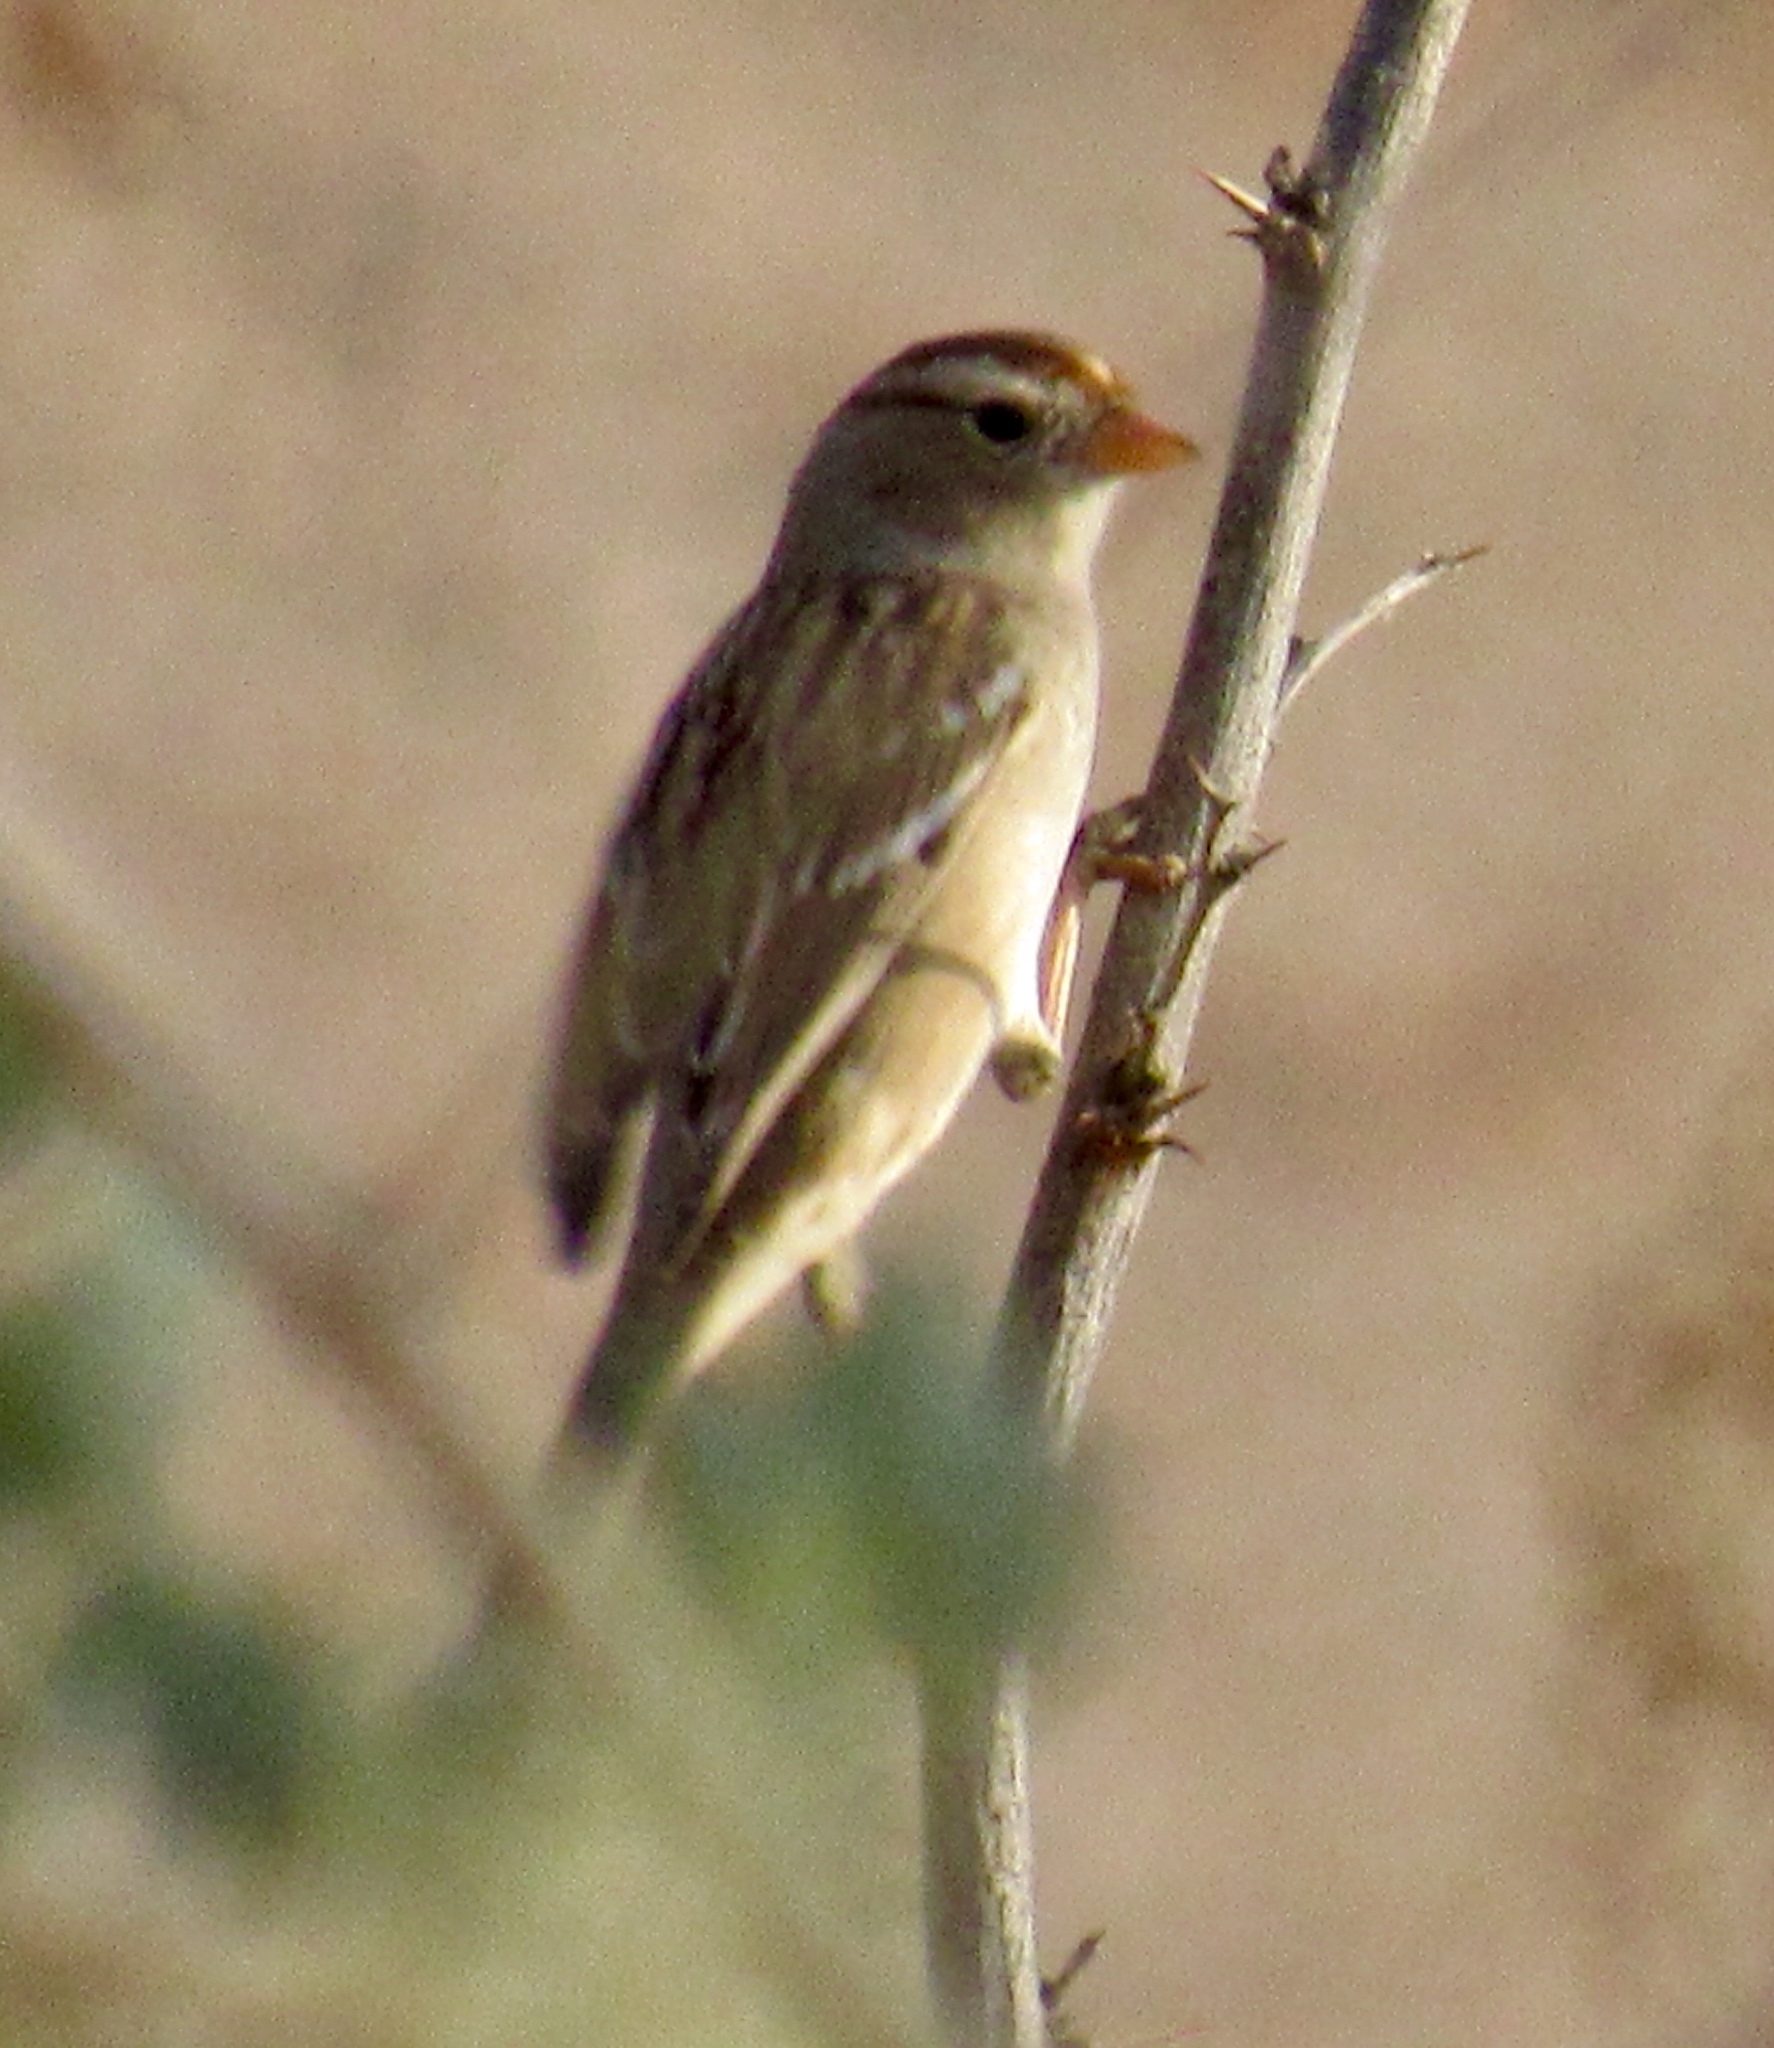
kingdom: Animalia
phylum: Chordata
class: Aves
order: Passeriformes
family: Passerellidae
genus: Zonotrichia
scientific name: Zonotrichia leucophrys
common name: White-crowned sparrow
